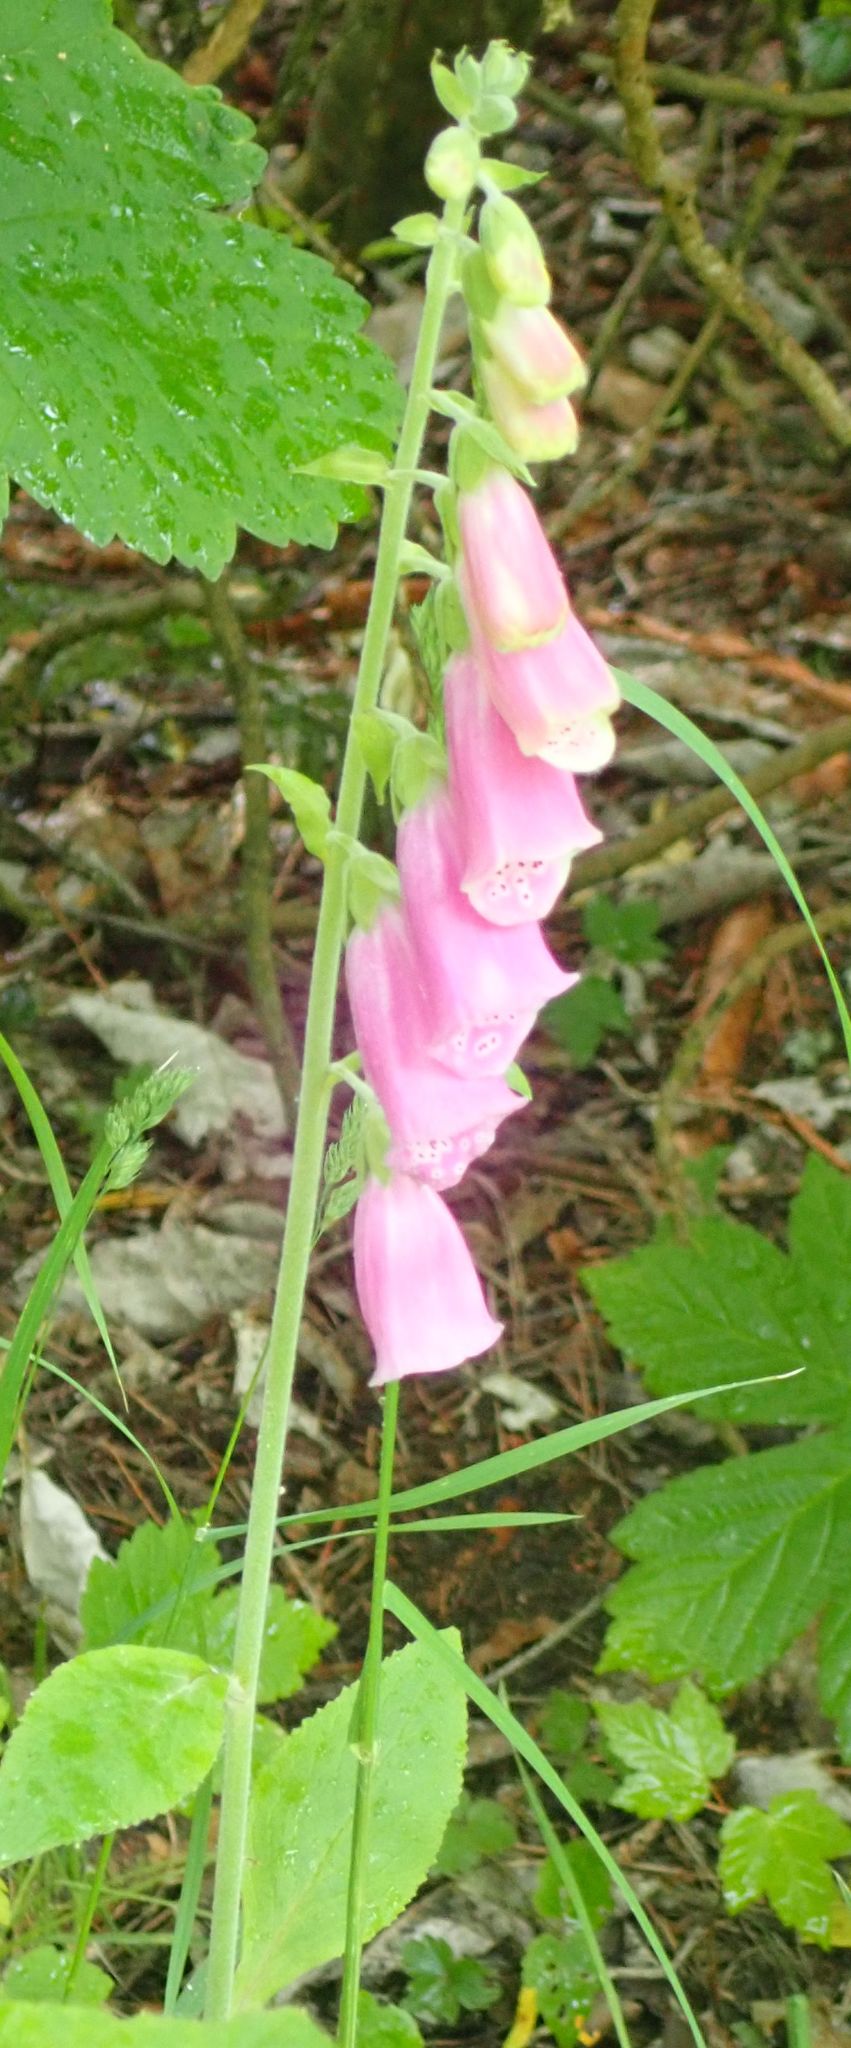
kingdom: Plantae
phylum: Tracheophyta
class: Magnoliopsida
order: Lamiales
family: Plantaginaceae
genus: Digitalis
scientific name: Digitalis purpurea
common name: Foxglove
